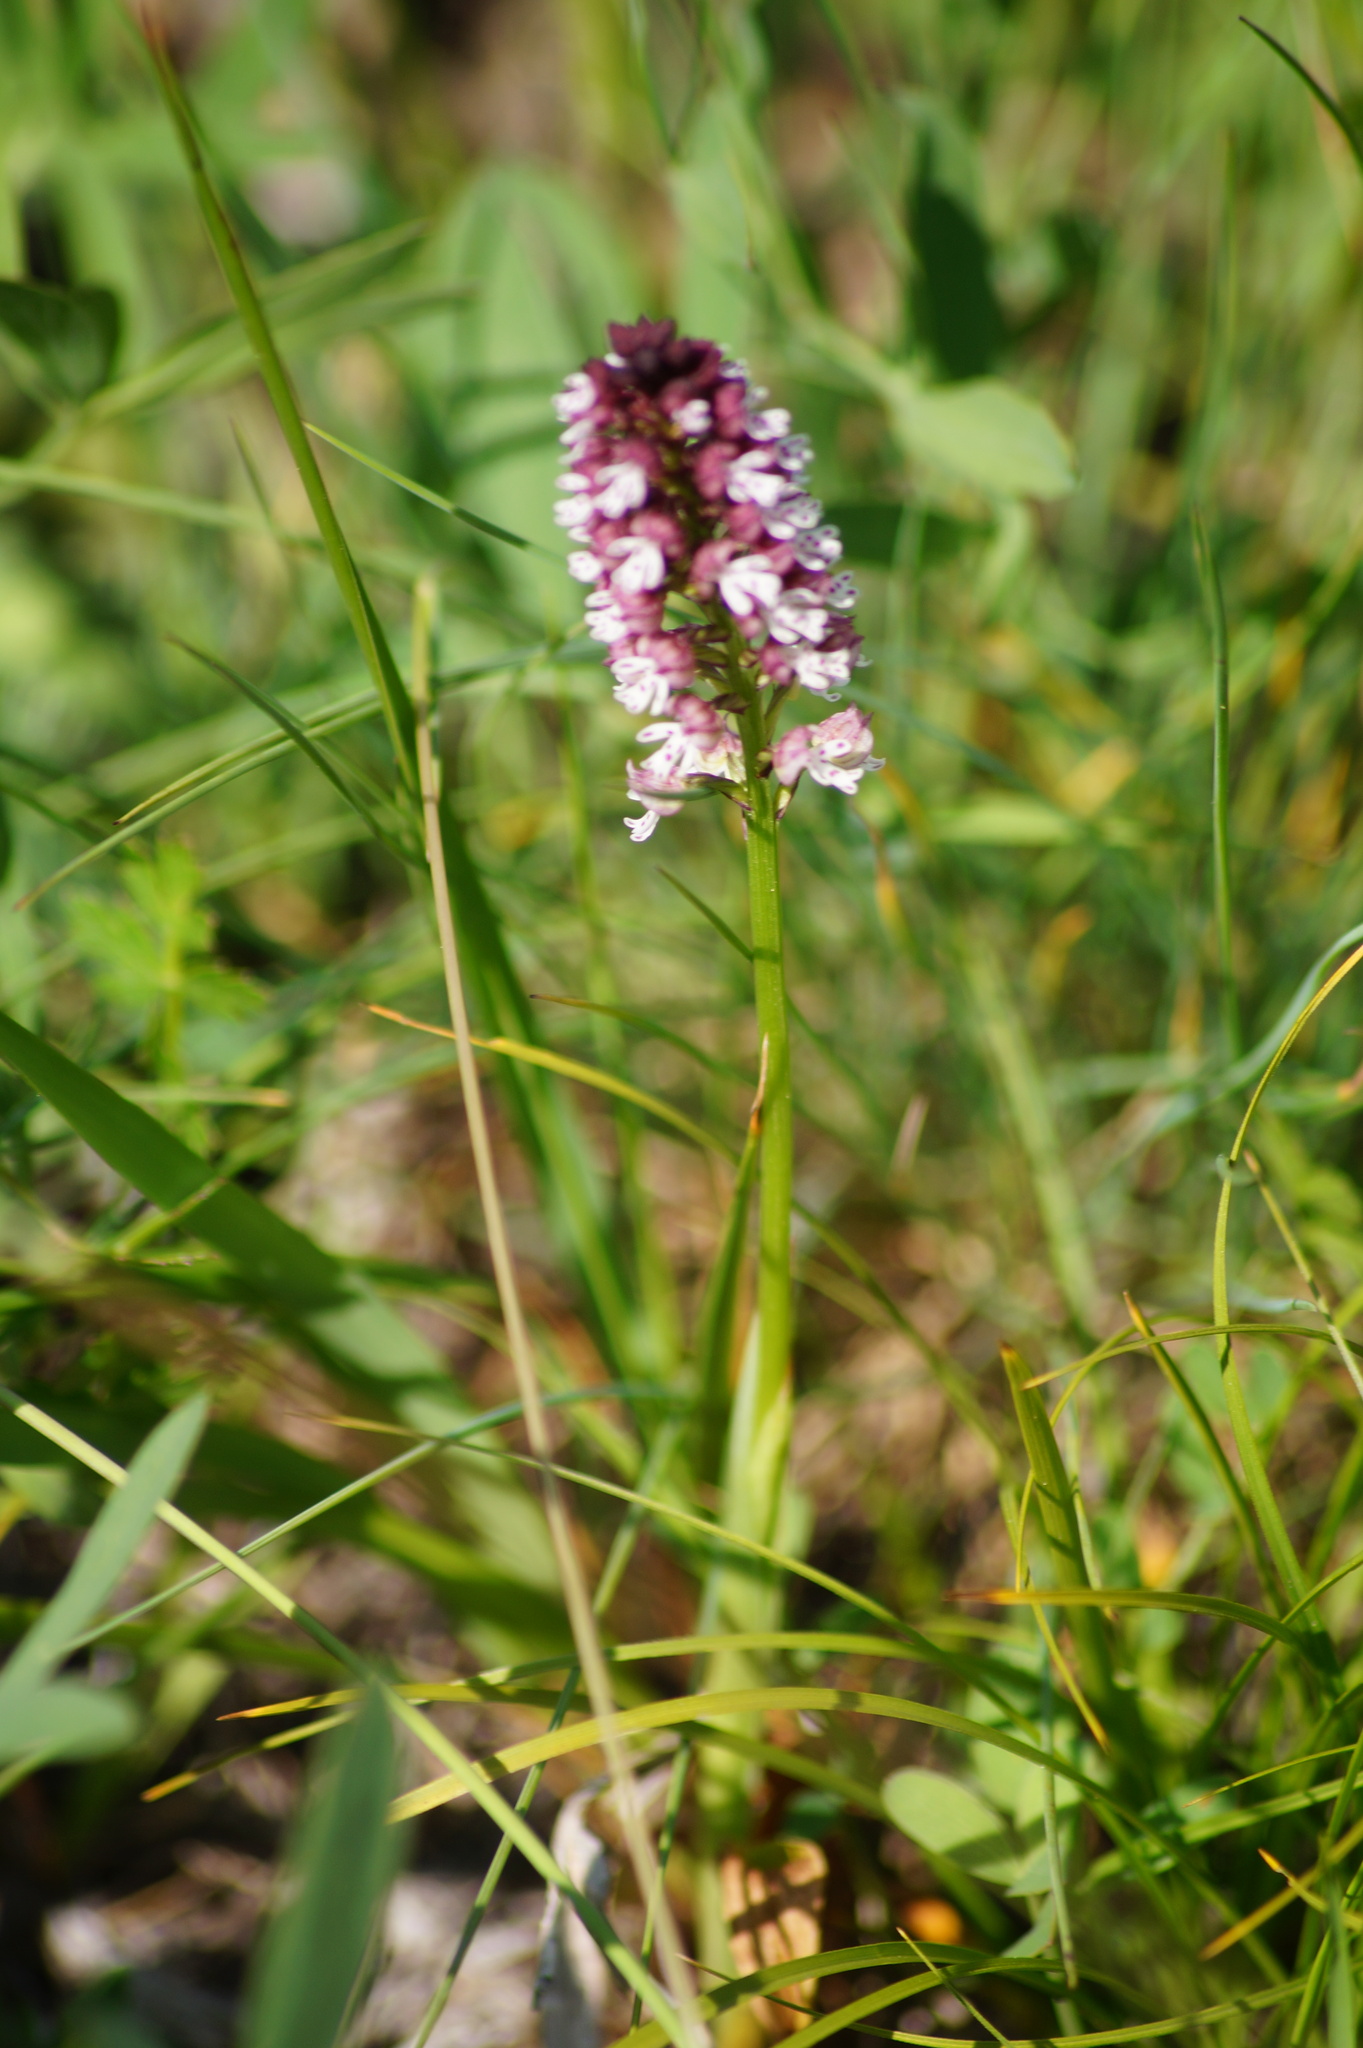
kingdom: Plantae
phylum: Tracheophyta
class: Liliopsida
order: Asparagales
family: Orchidaceae
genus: Neotinea
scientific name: Neotinea ustulata
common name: Burnt orchid
